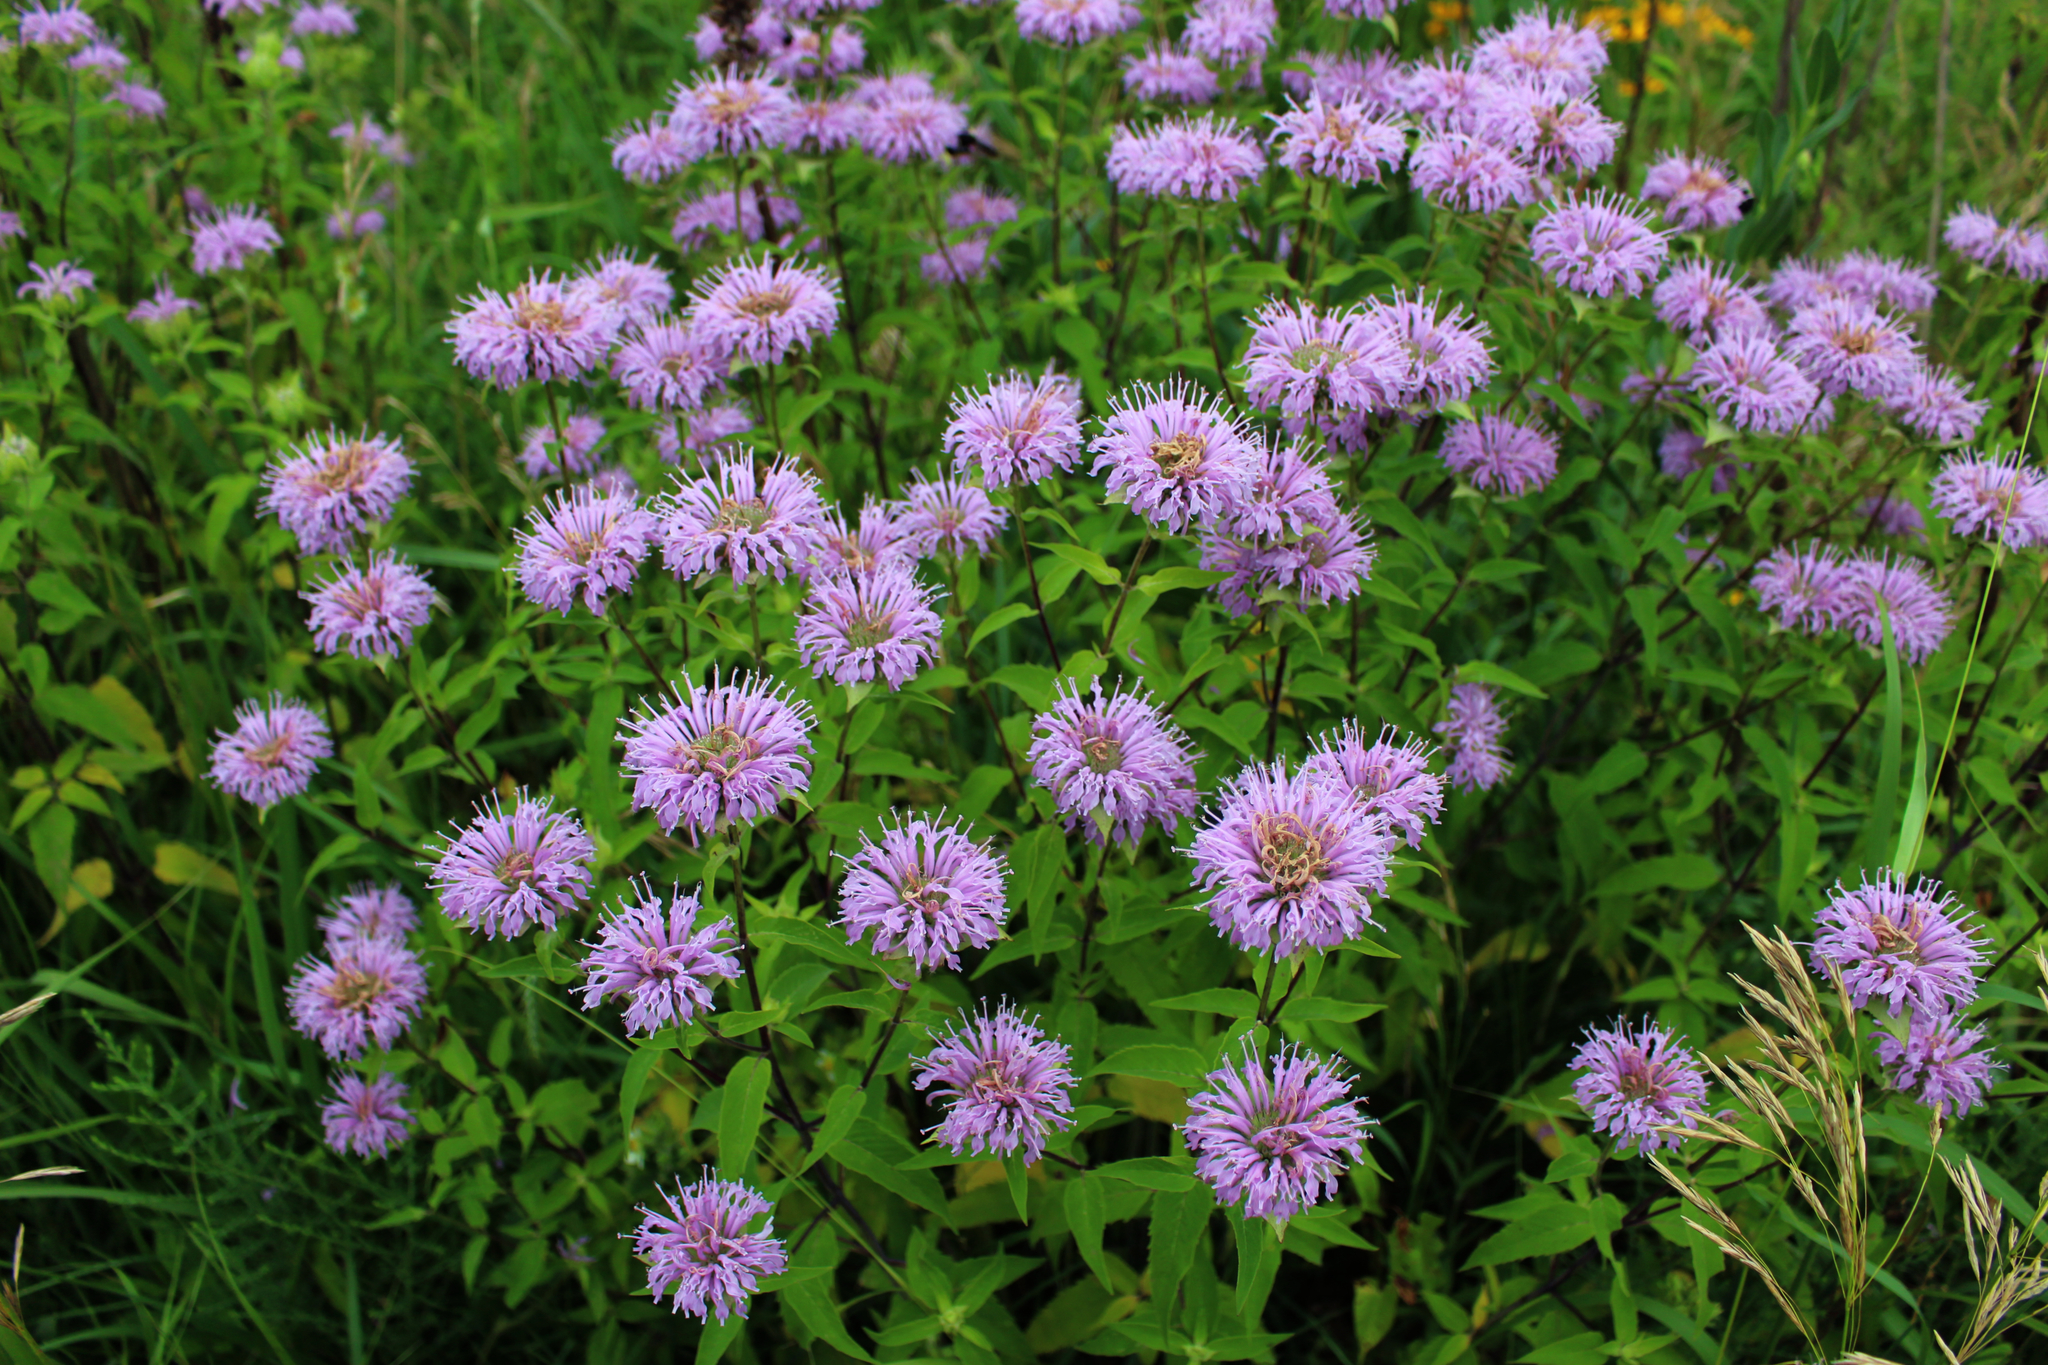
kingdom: Plantae
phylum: Tracheophyta
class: Magnoliopsida
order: Lamiales
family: Lamiaceae
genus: Monarda
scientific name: Monarda fistulosa
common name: Purple beebalm
